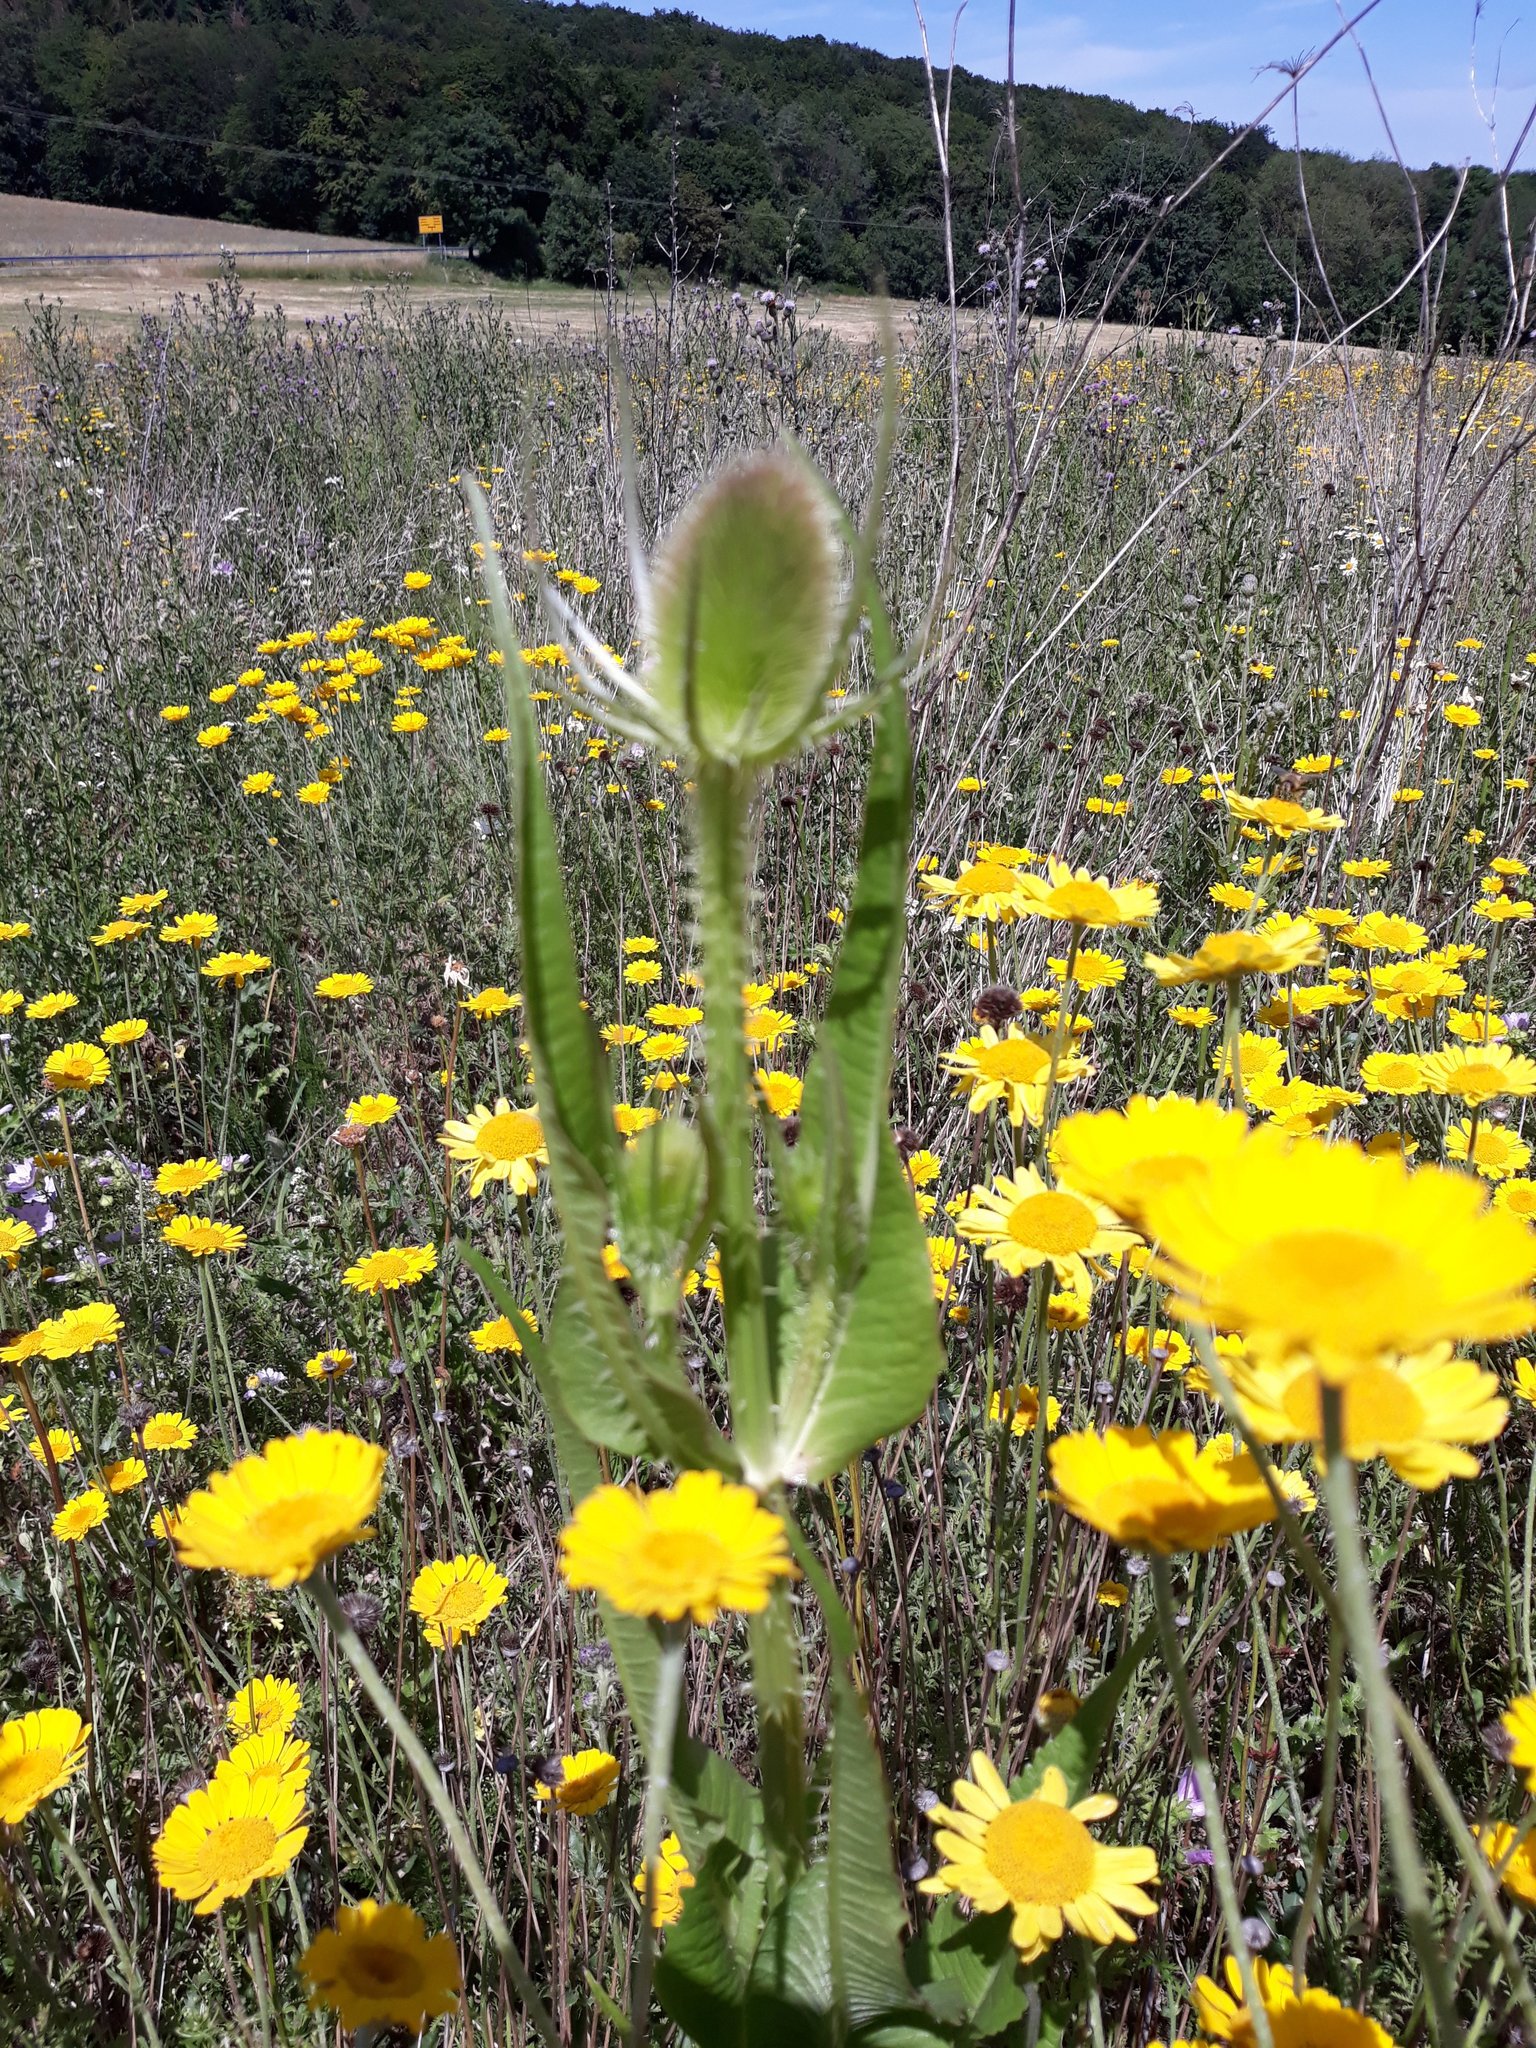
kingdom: Plantae
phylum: Tracheophyta
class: Magnoliopsida
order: Dipsacales
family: Caprifoliaceae
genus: Dipsacus
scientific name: Dipsacus fullonum
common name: Teasel
